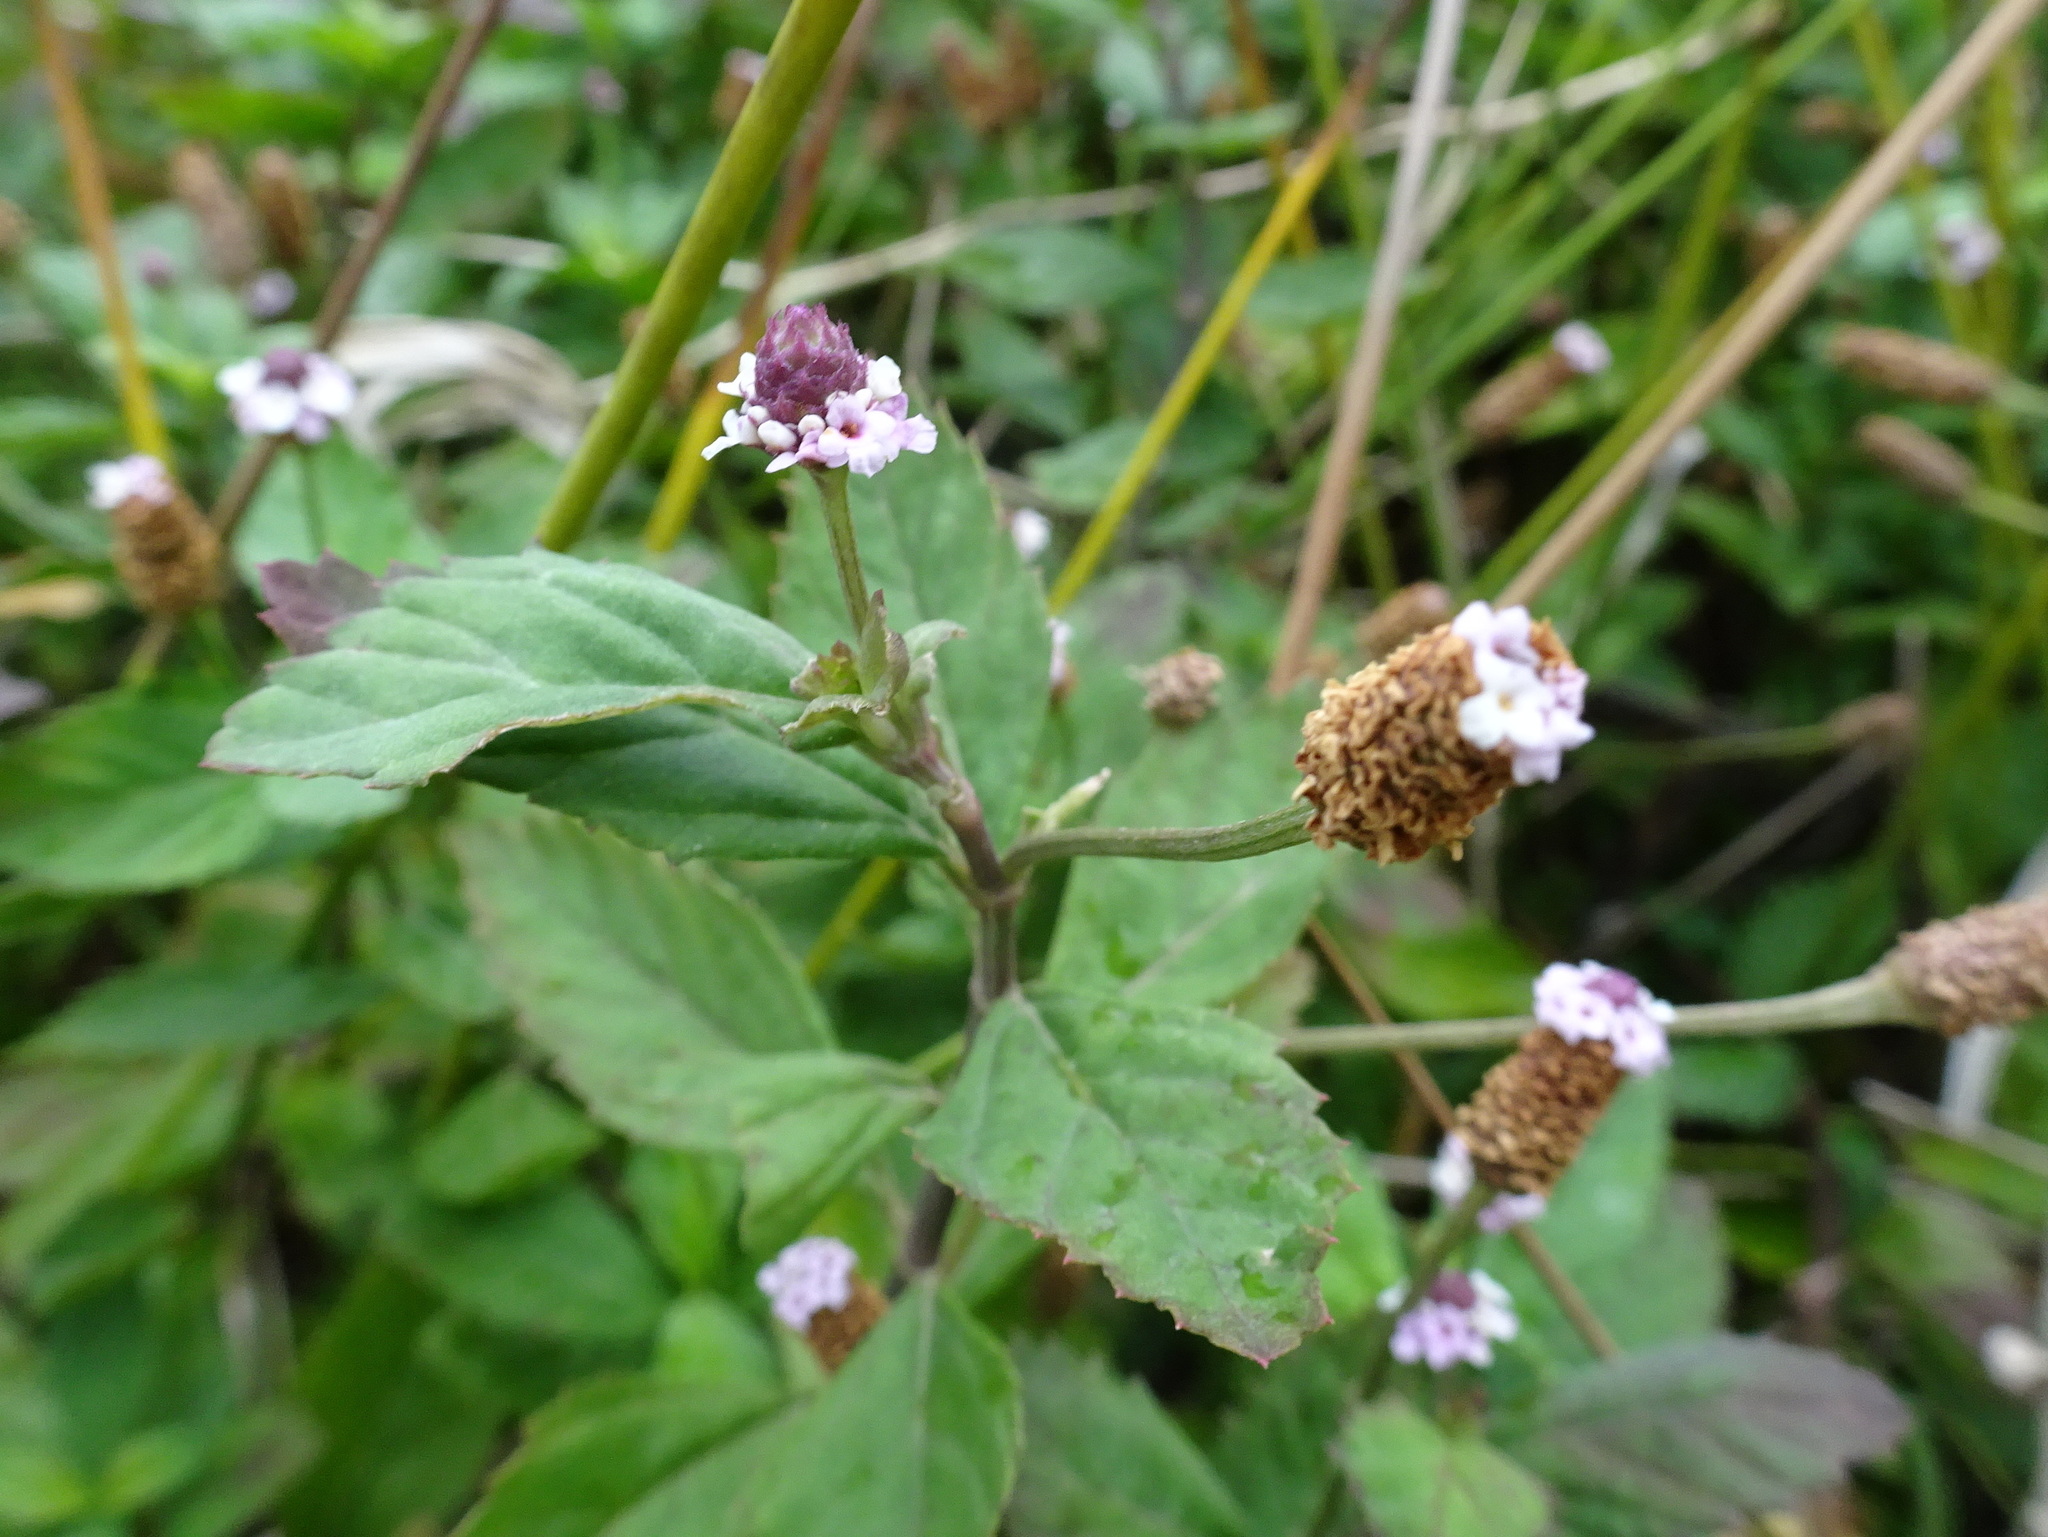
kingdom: Plantae
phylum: Tracheophyta
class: Magnoliopsida
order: Lamiales
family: Verbenaceae
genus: Phyla
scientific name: Phyla lanceolata
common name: Northern fogfruit
